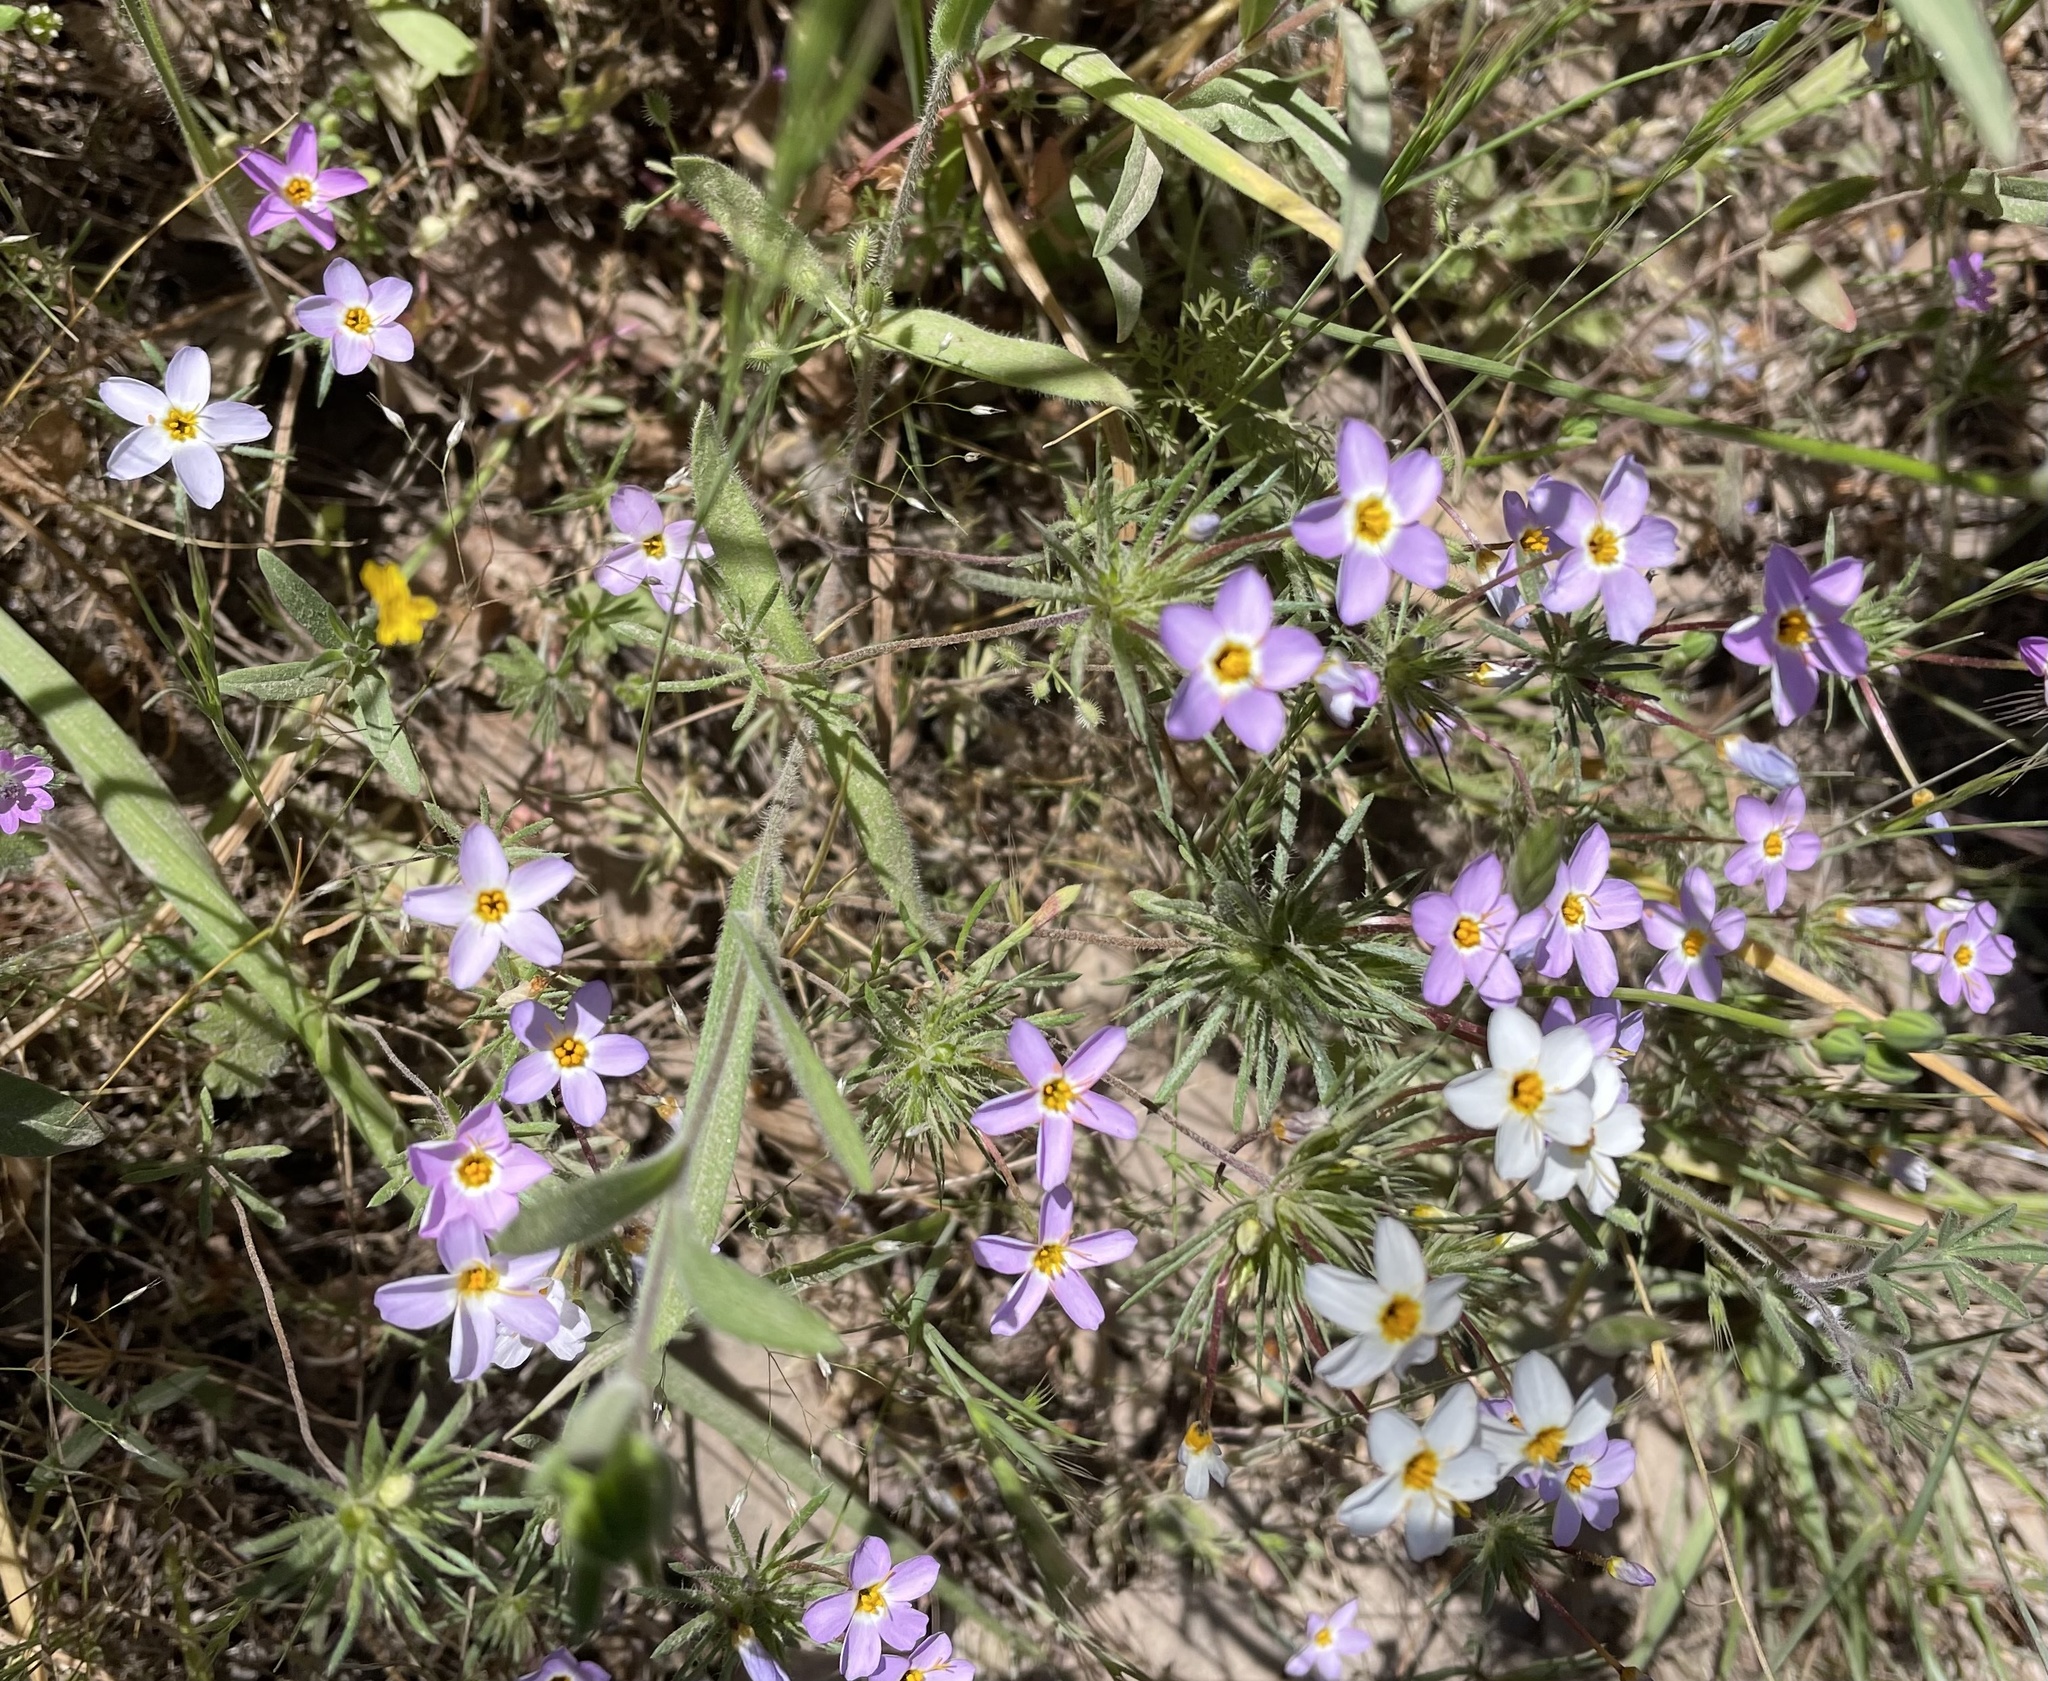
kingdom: Plantae
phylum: Tracheophyta
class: Magnoliopsida
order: Ericales
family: Polemoniaceae
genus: Leptosiphon
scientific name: Leptosiphon androsaceus
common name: False babystars
